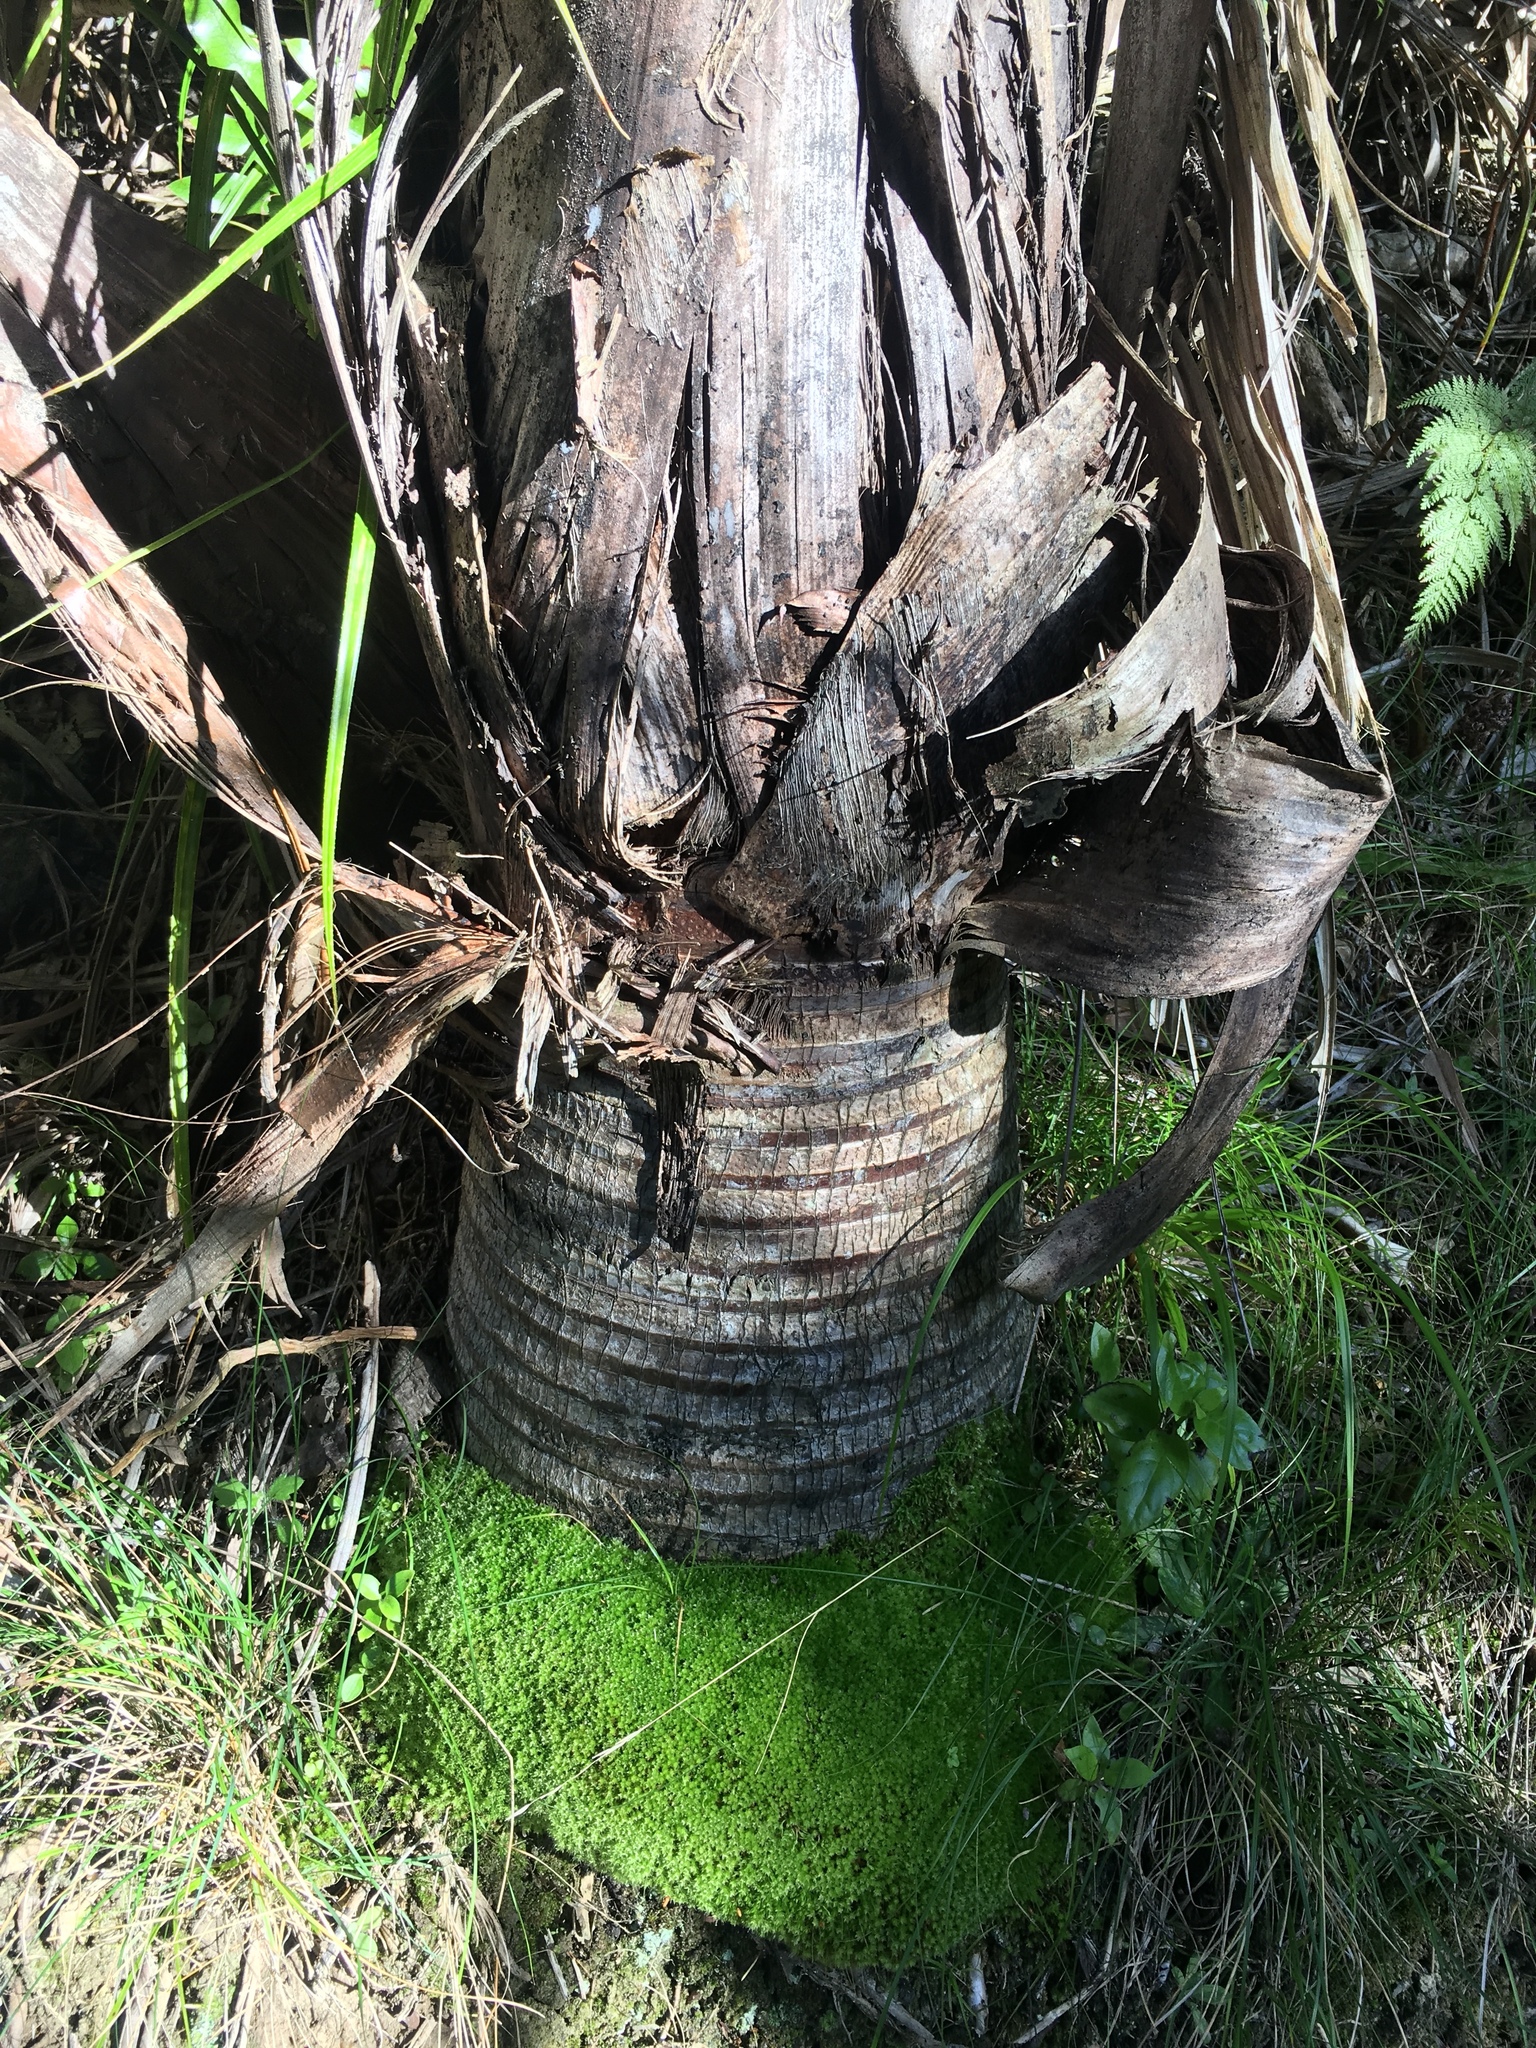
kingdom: Plantae
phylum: Tracheophyta
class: Liliopsida
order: Arecales
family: Arecaceae
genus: Rhopalostylis
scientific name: Rhopalostylis sapida
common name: Feather-duster palm
